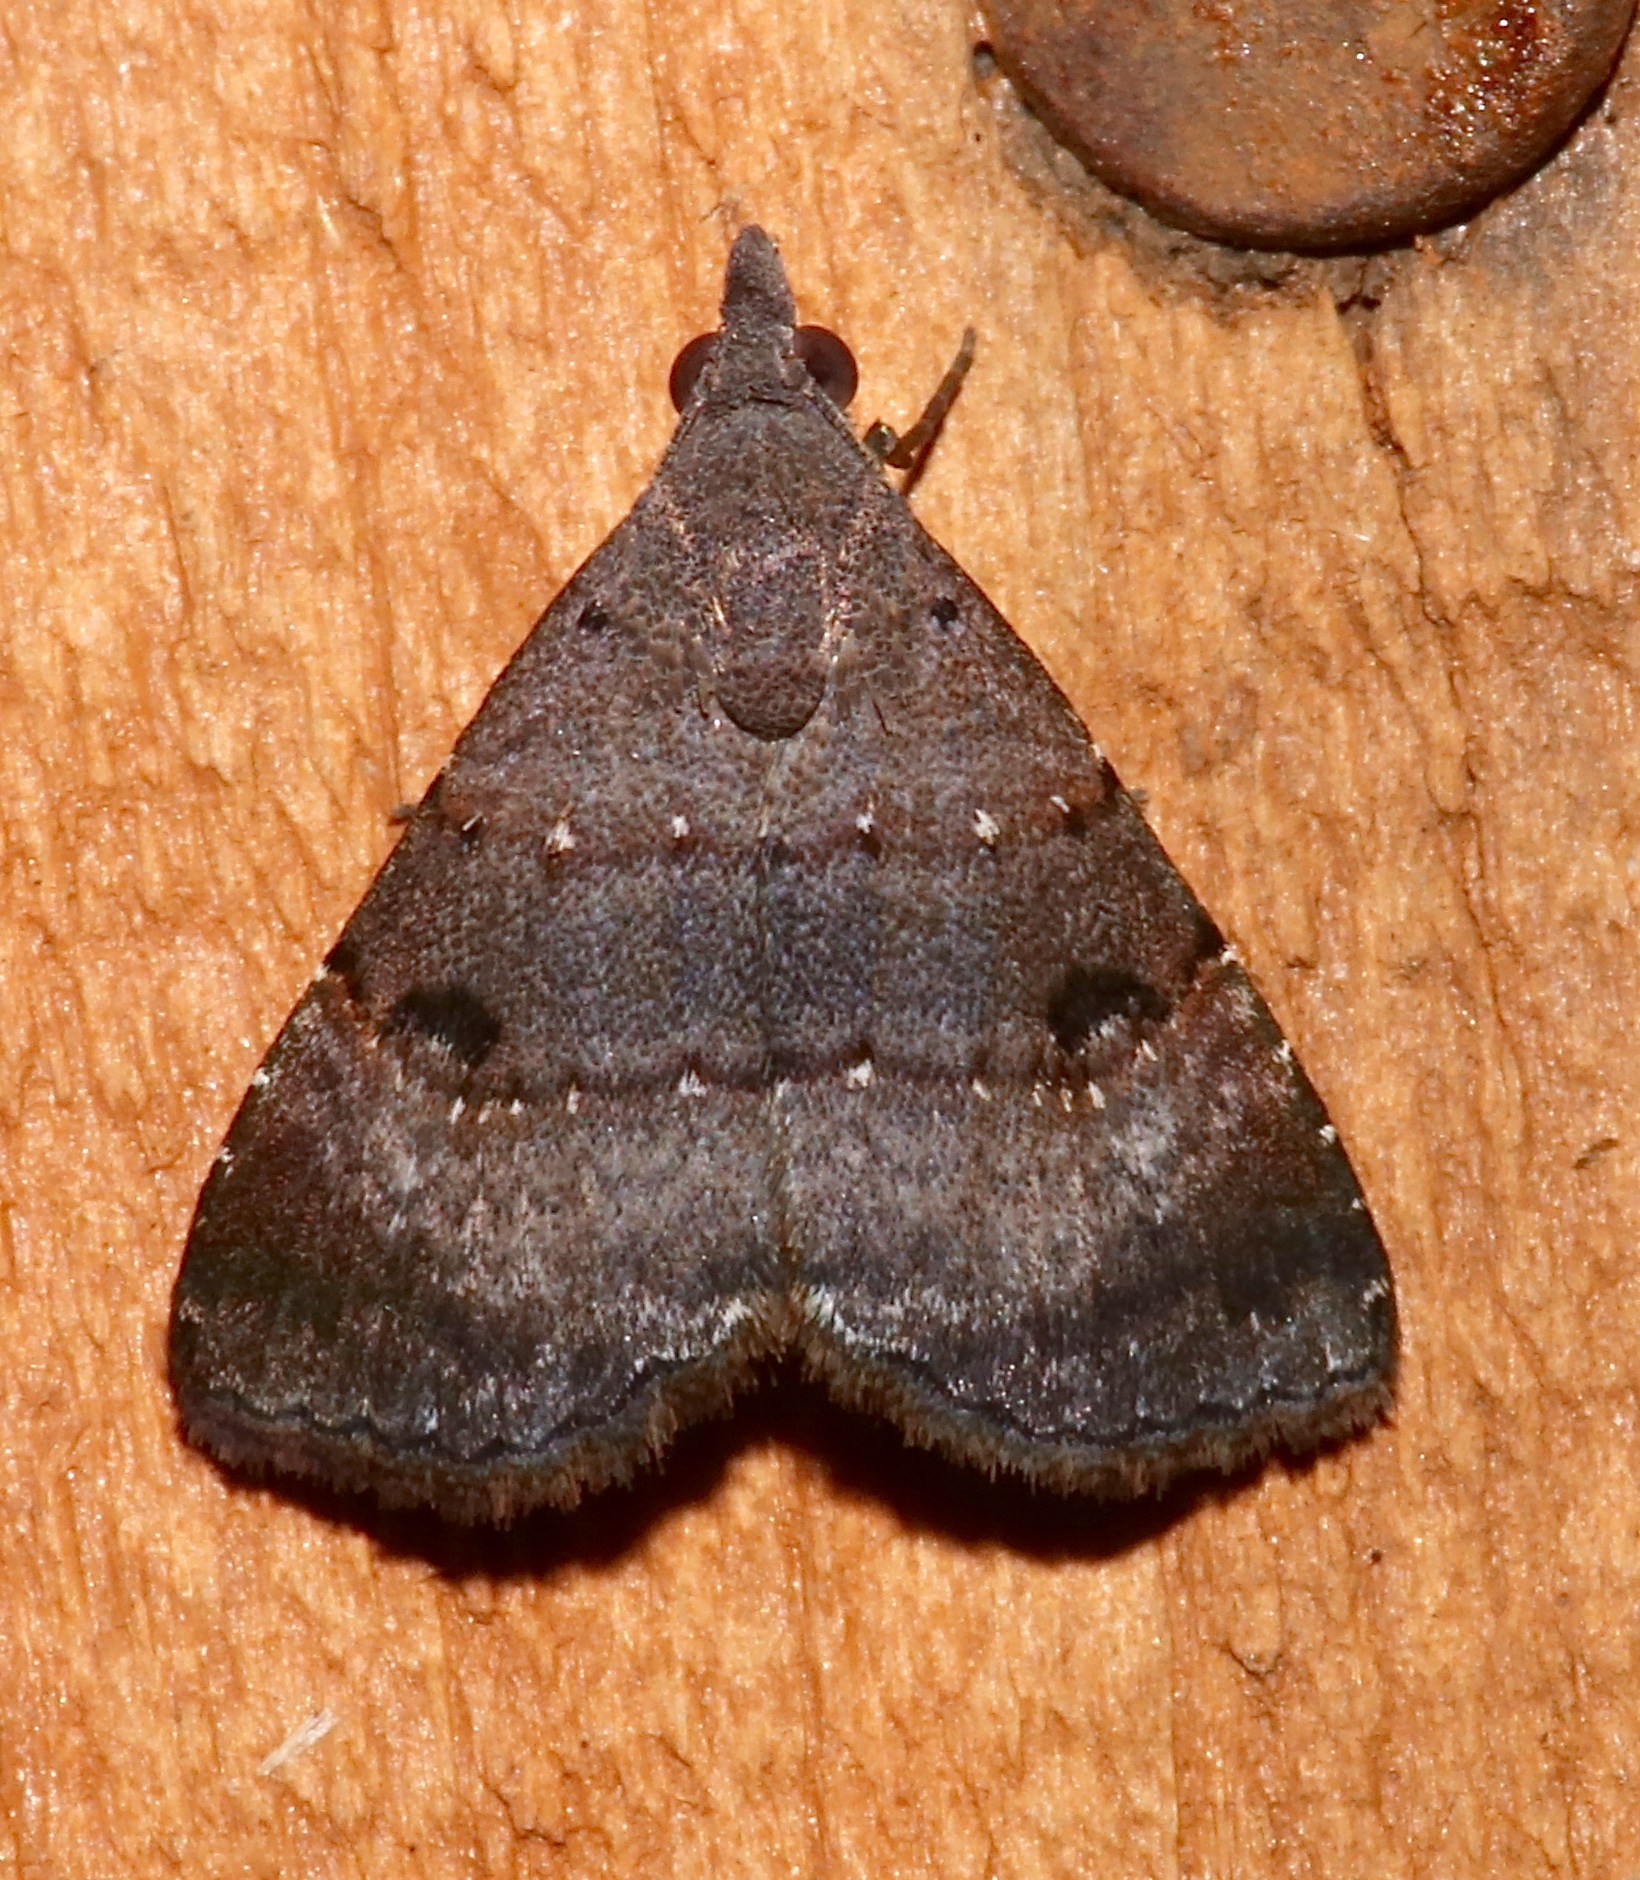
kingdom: Animalia
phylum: Arthropoda
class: Insecta
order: Lepidoptera
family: Noctuidae
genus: Hormoschista
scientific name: Hormoschista latipalpis
